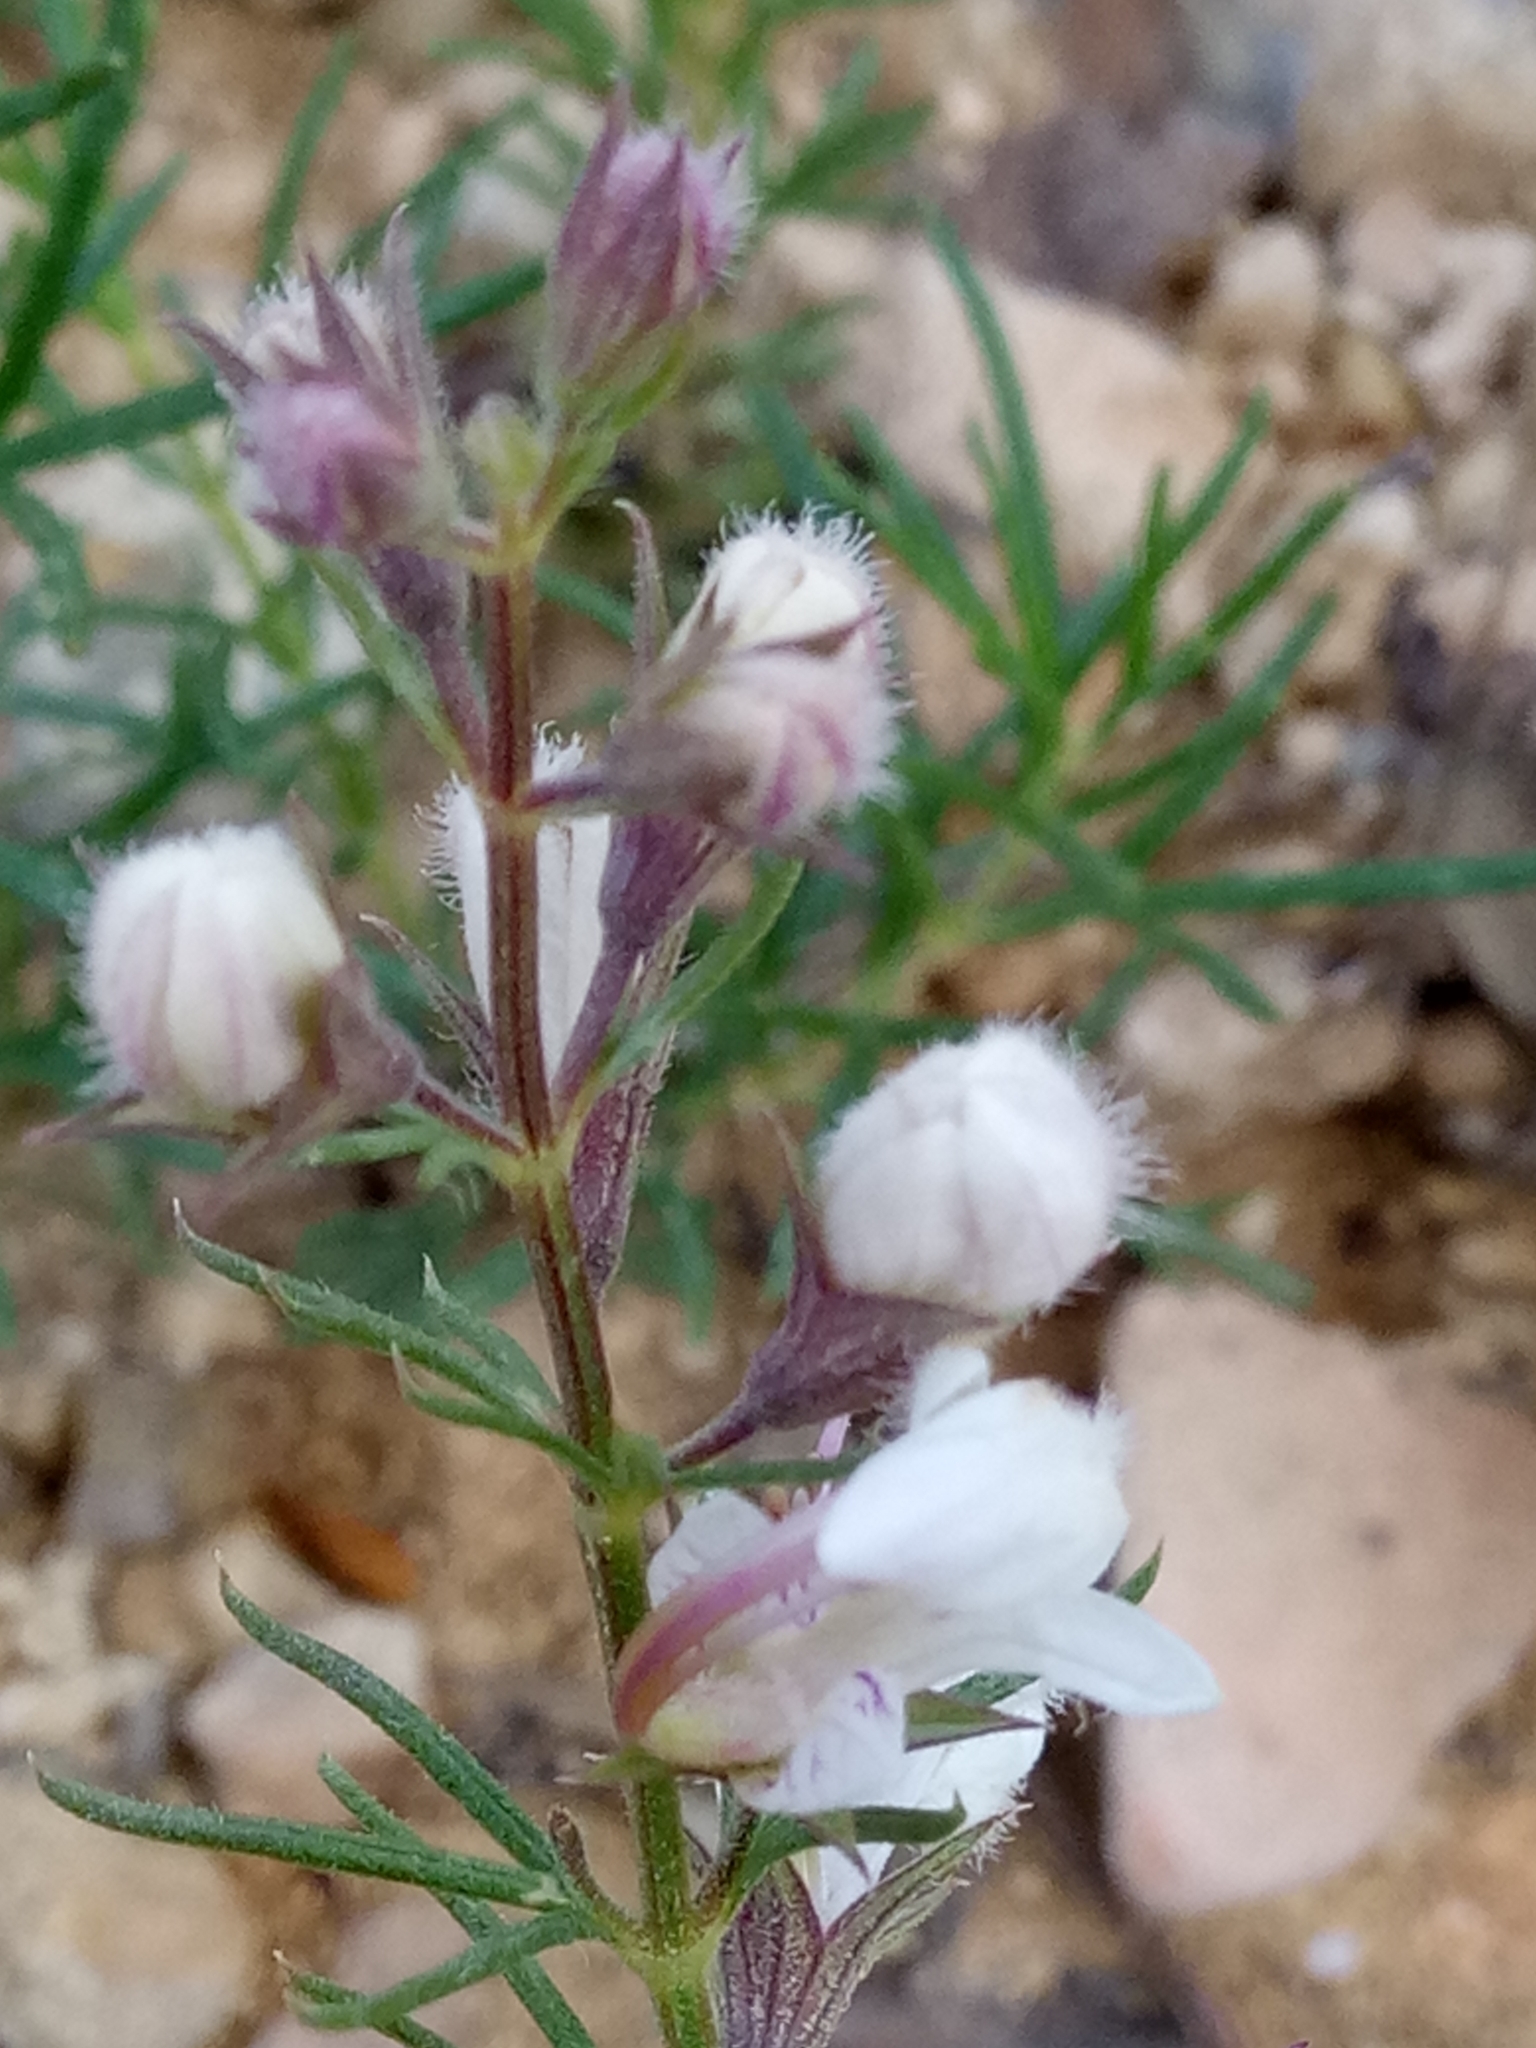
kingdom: Plantae
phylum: Tracheophyta
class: Magnoliopsida
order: Lamiales
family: Lamiaceae
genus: Teucrium
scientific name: Teucrium pseudochamaepitys
